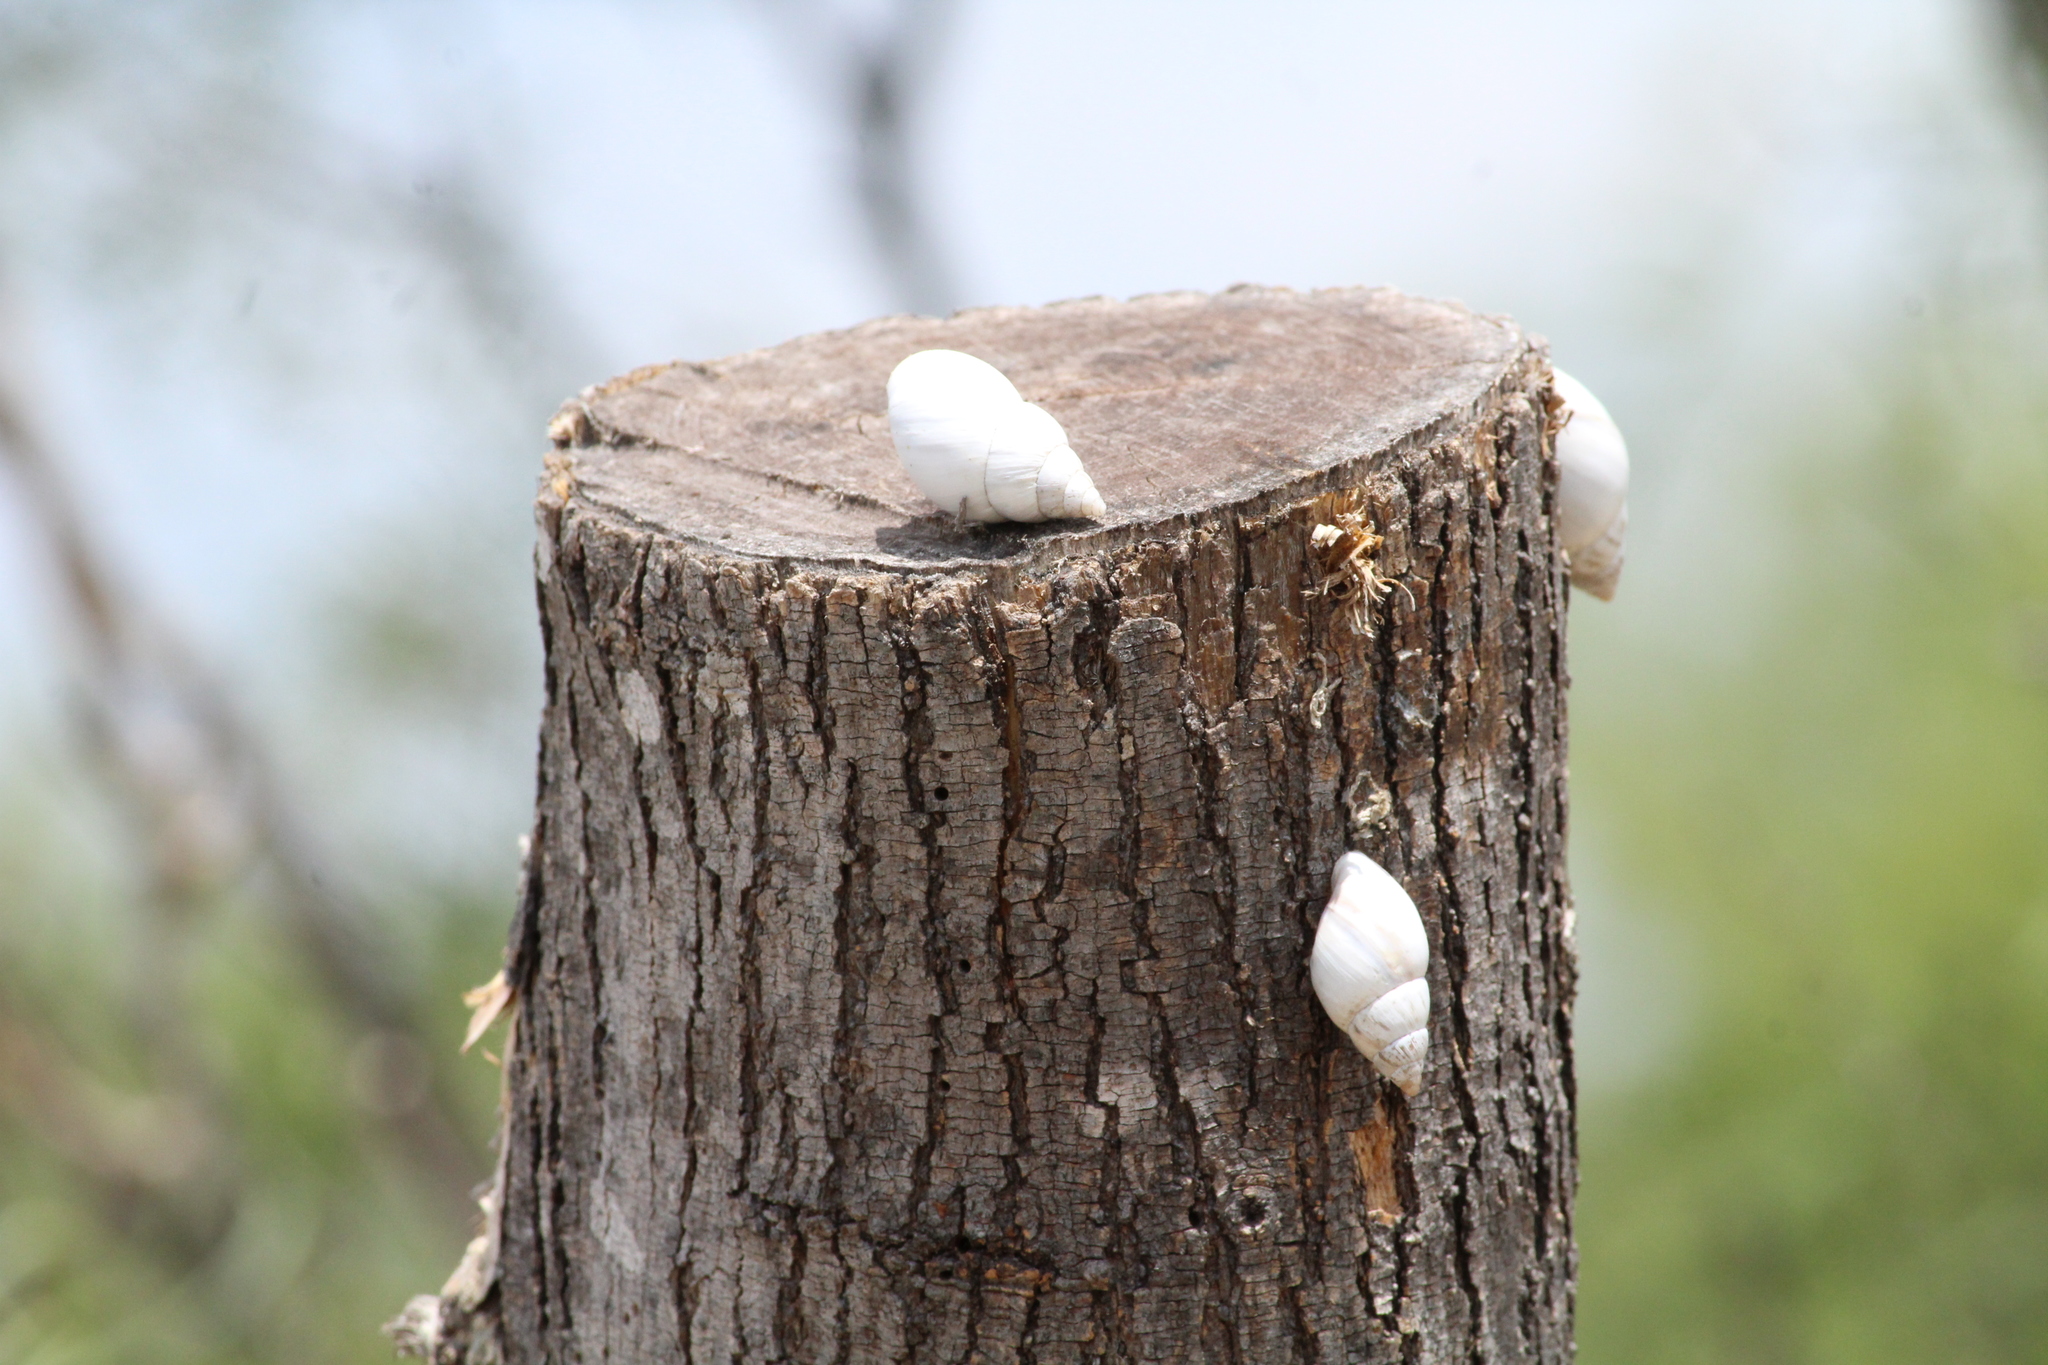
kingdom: Animalia
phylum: Mollusca
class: Gastropoda
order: Stylommatophora
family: Bulimulidae
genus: Rabdotus
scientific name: Rabdotus mooreanus
